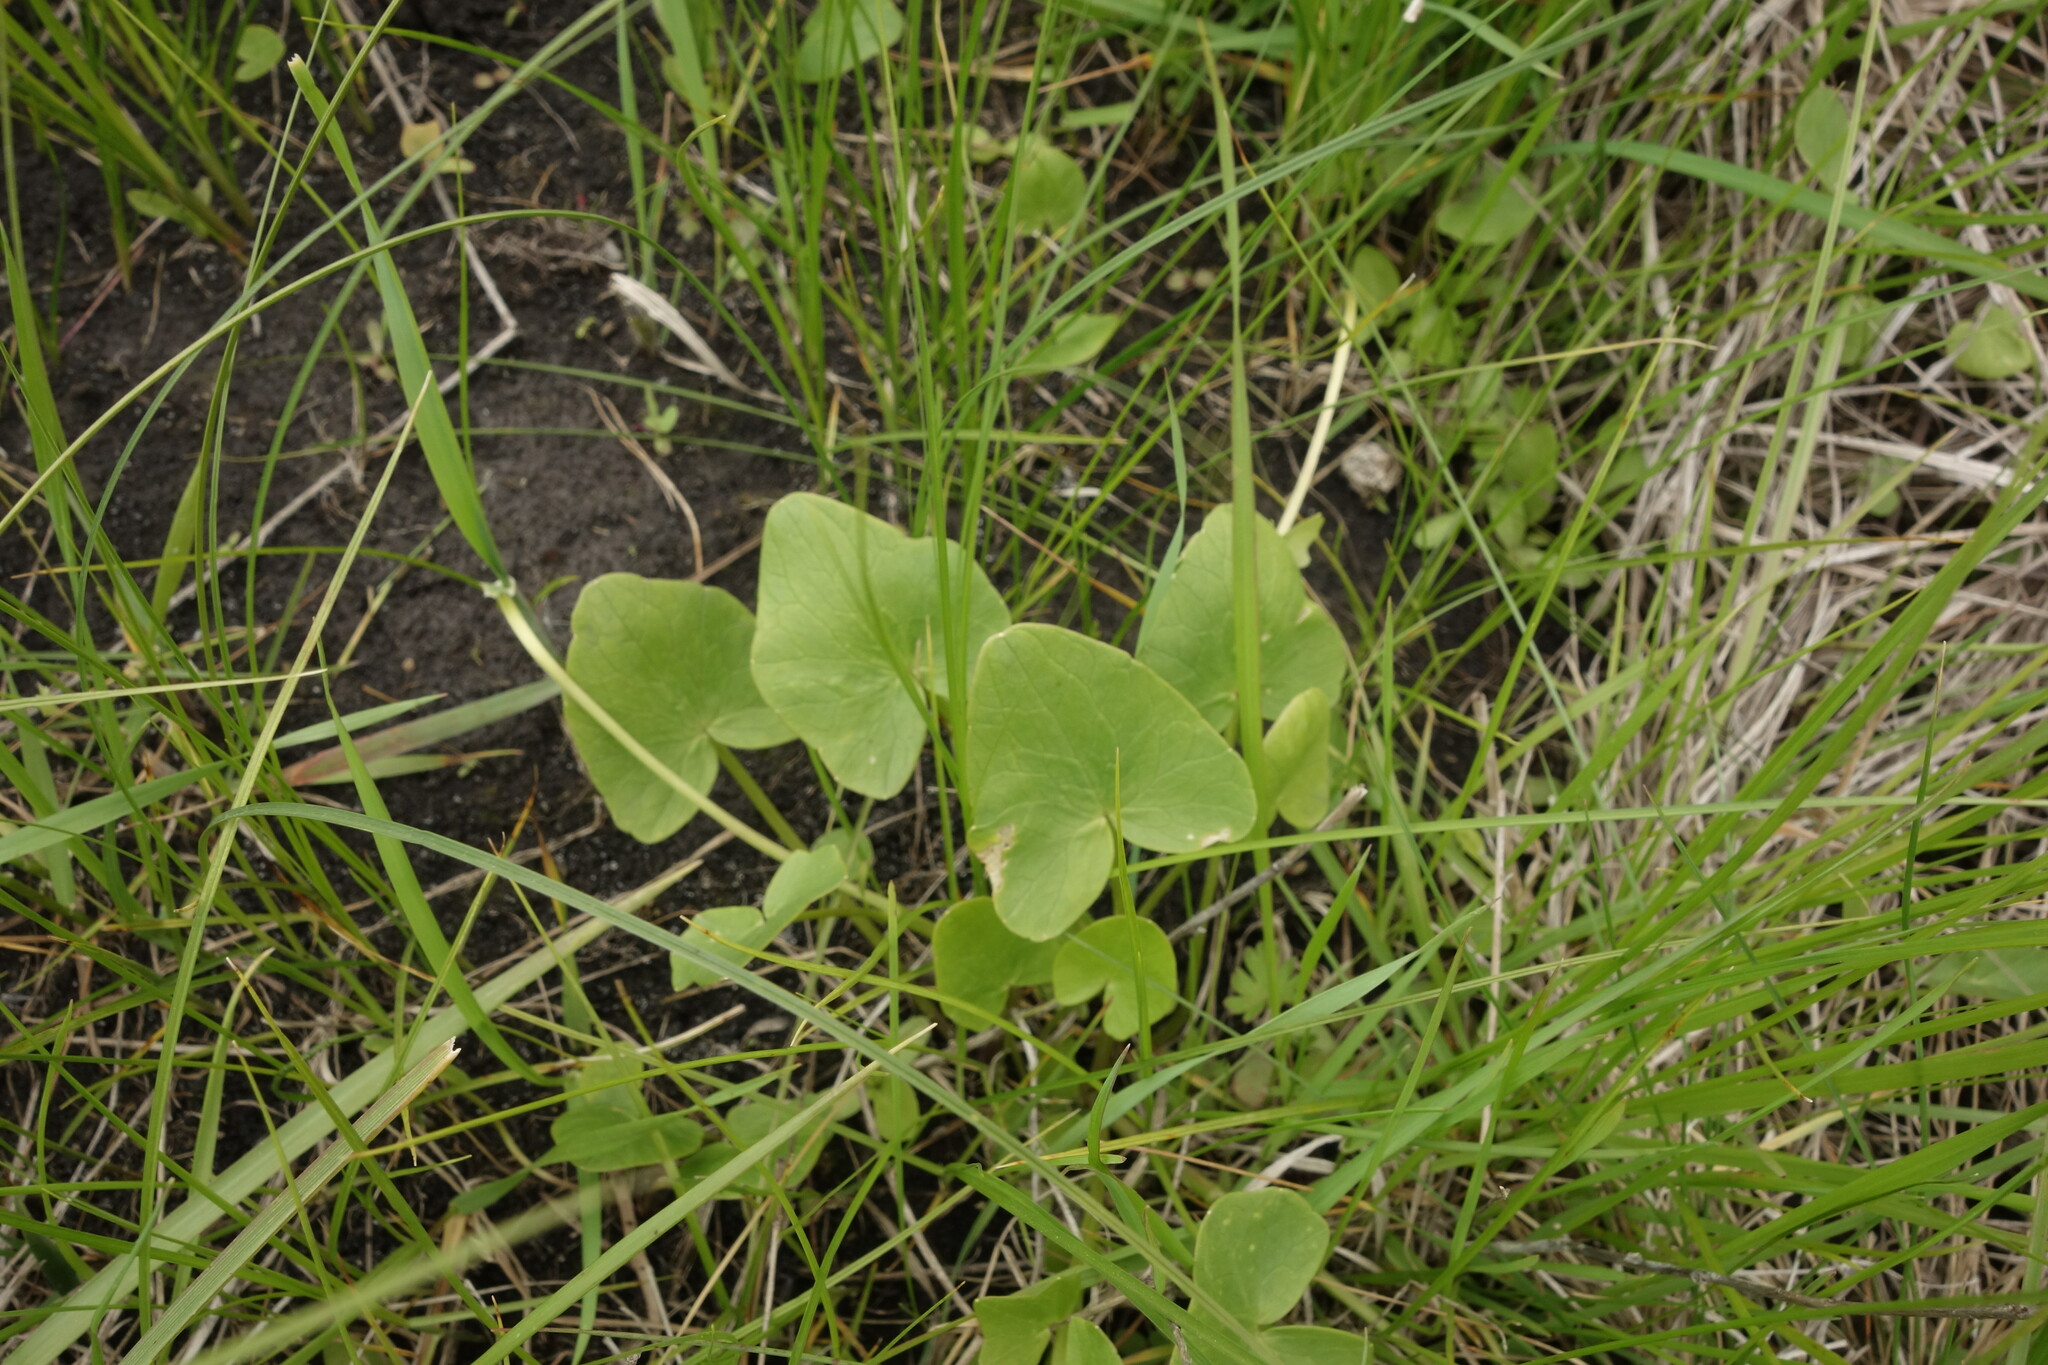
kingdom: Plantae
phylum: Tracheophyta
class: Magnoliopsida
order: Ranunculales
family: Ranunculaceae
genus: Ficaria
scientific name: Ficaria verna
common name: Lesser celandine
